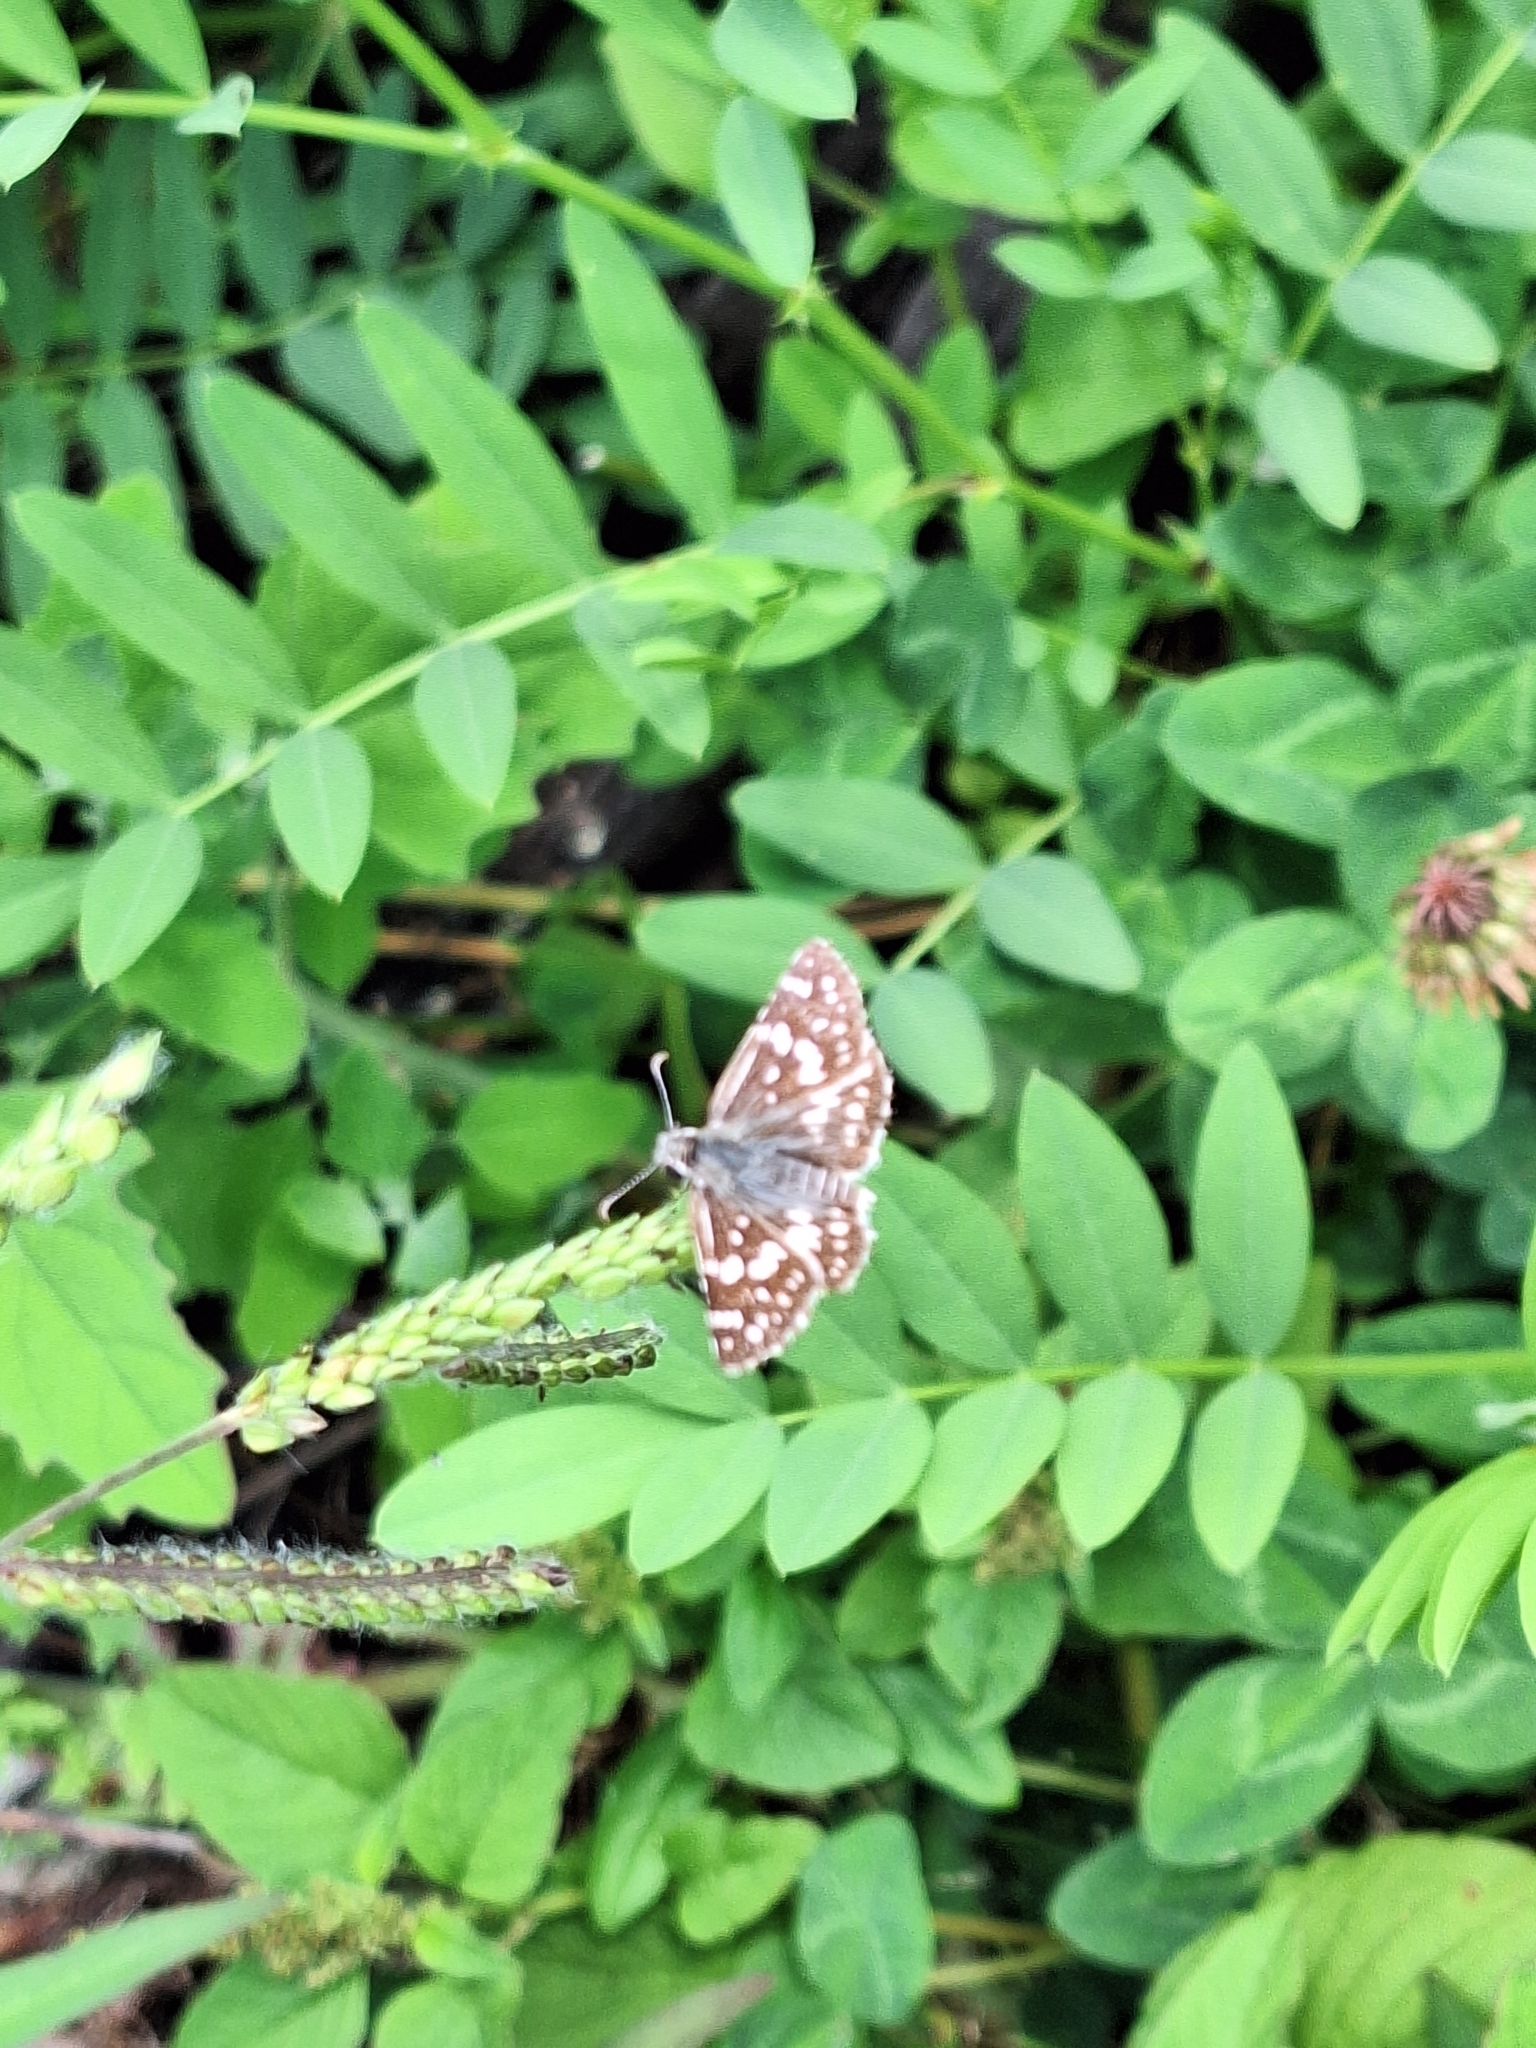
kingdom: Animalia
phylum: Arthropoda
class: Insecta
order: Lepidoptera
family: Hesperiidae
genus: Burnsius
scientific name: Burnsius orcynoides
